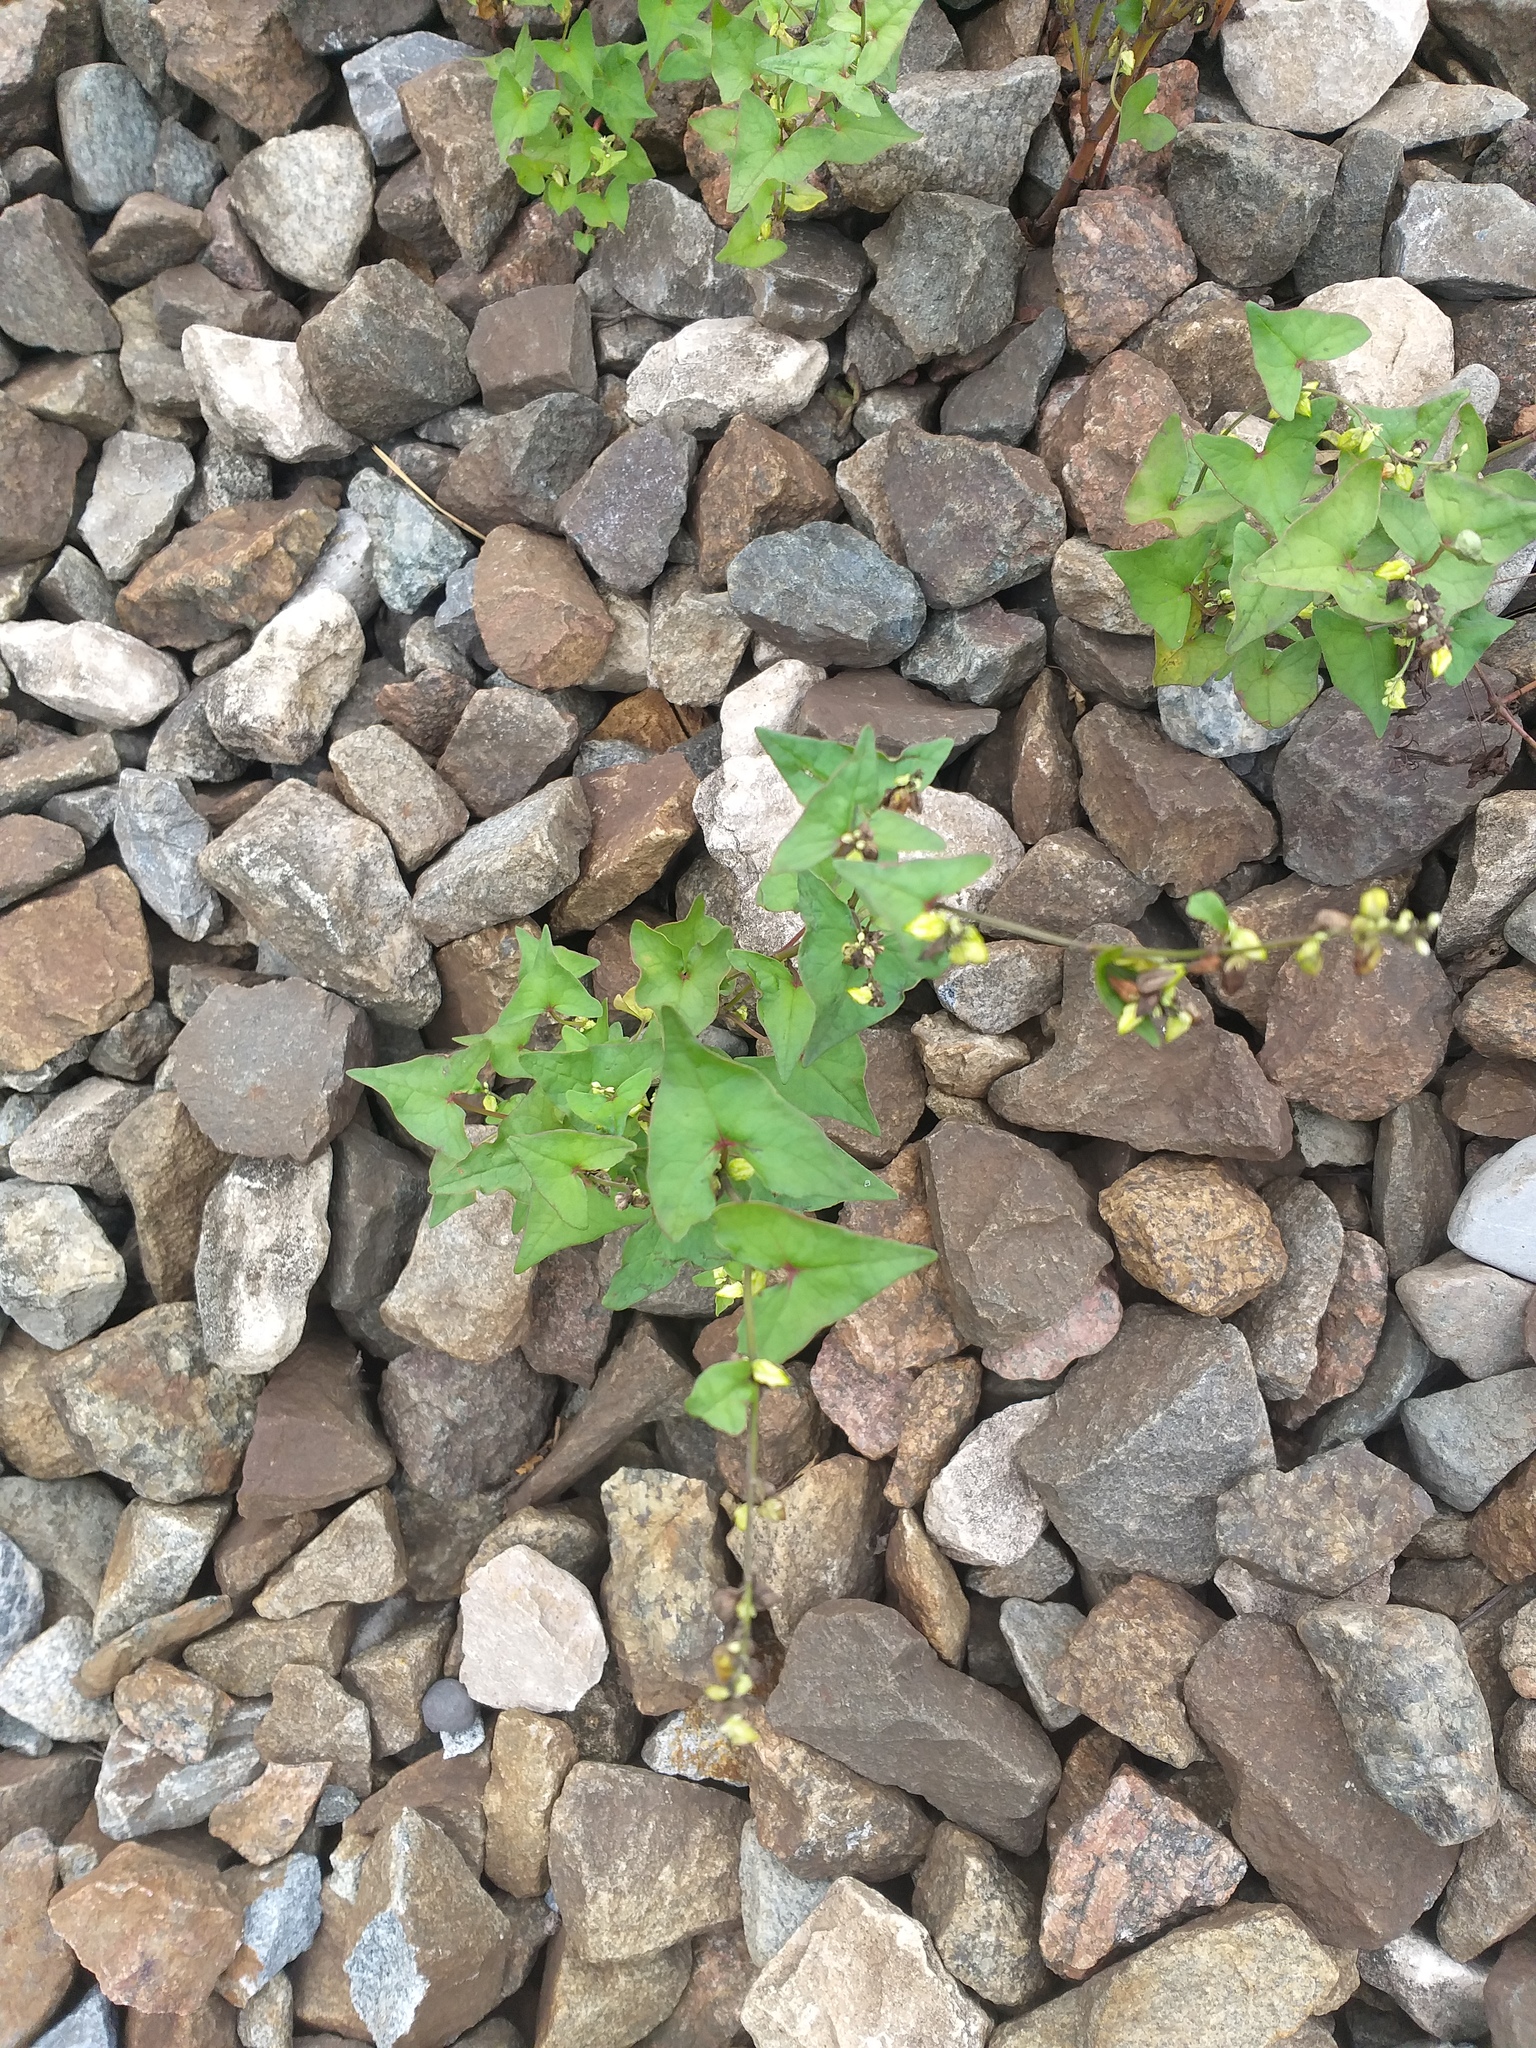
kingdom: Plantae
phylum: Tracheophyta
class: Magnoliopsida
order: Caryophyllales
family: Polygonaceae
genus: Fagopyrum
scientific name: Fagopyrum tataricum
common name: Green buckwheat
